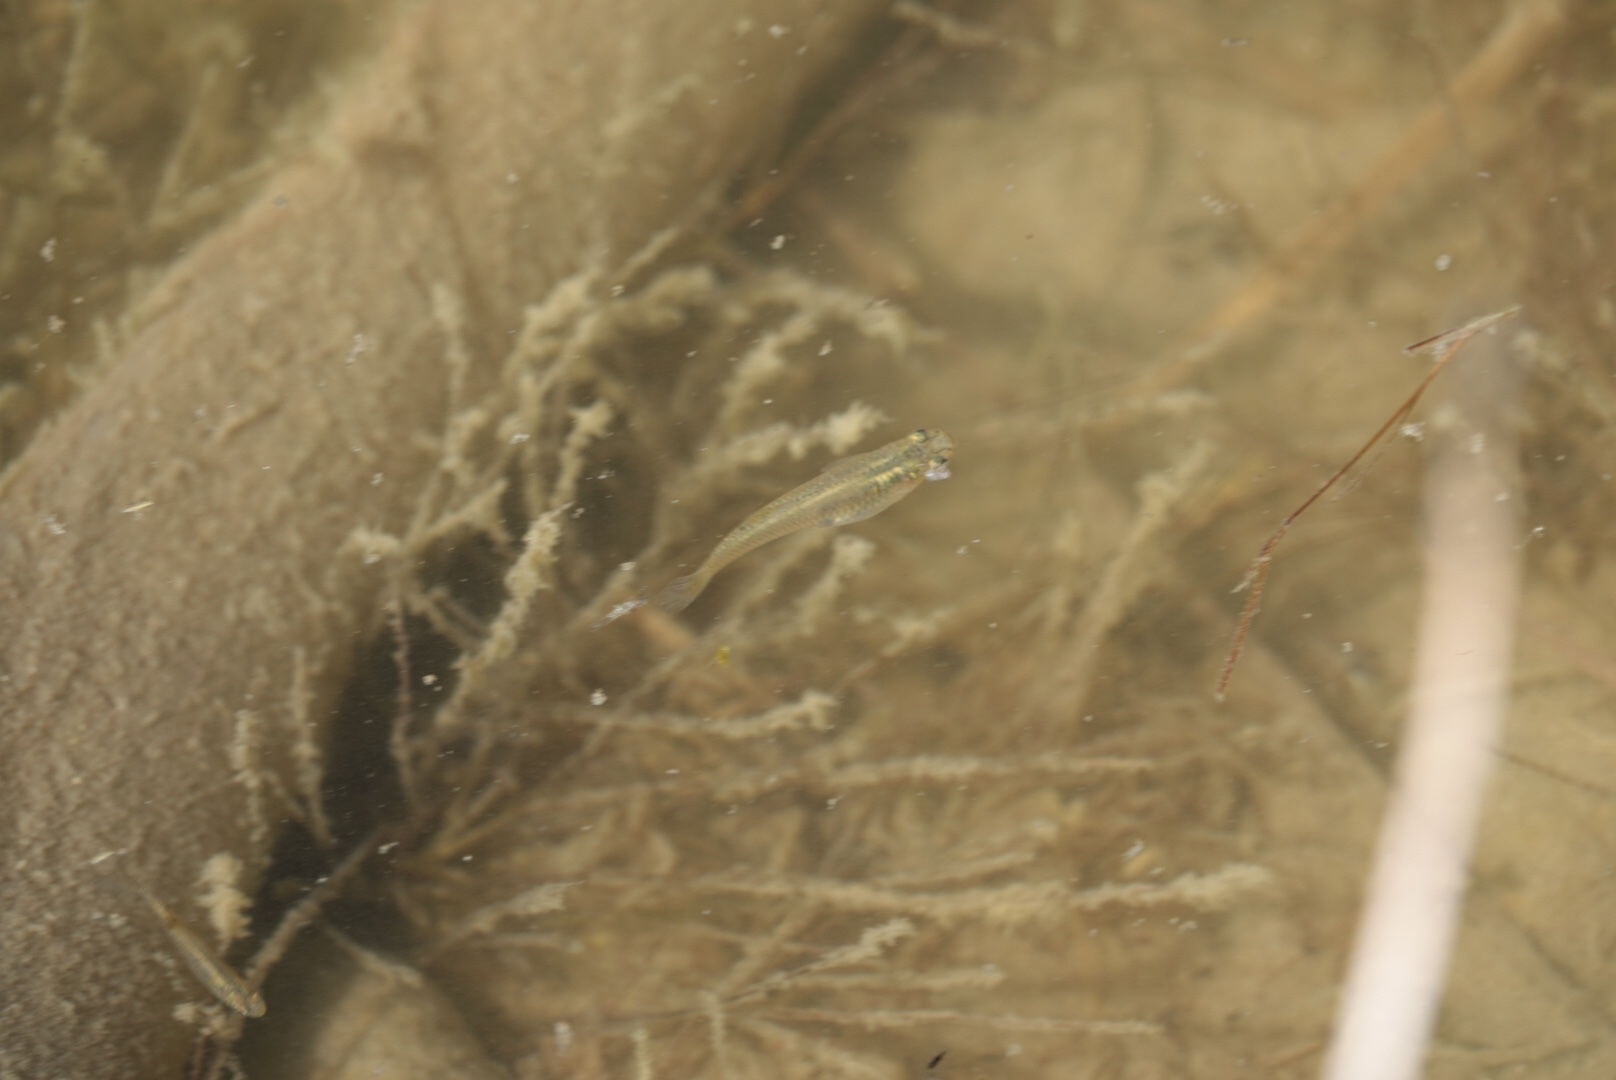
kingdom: Animalia
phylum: Chordata
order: Cyprinodontiformes
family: Poeciliidae
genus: Gambusia
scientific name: Gambusia affinis
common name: Mosquitofish
